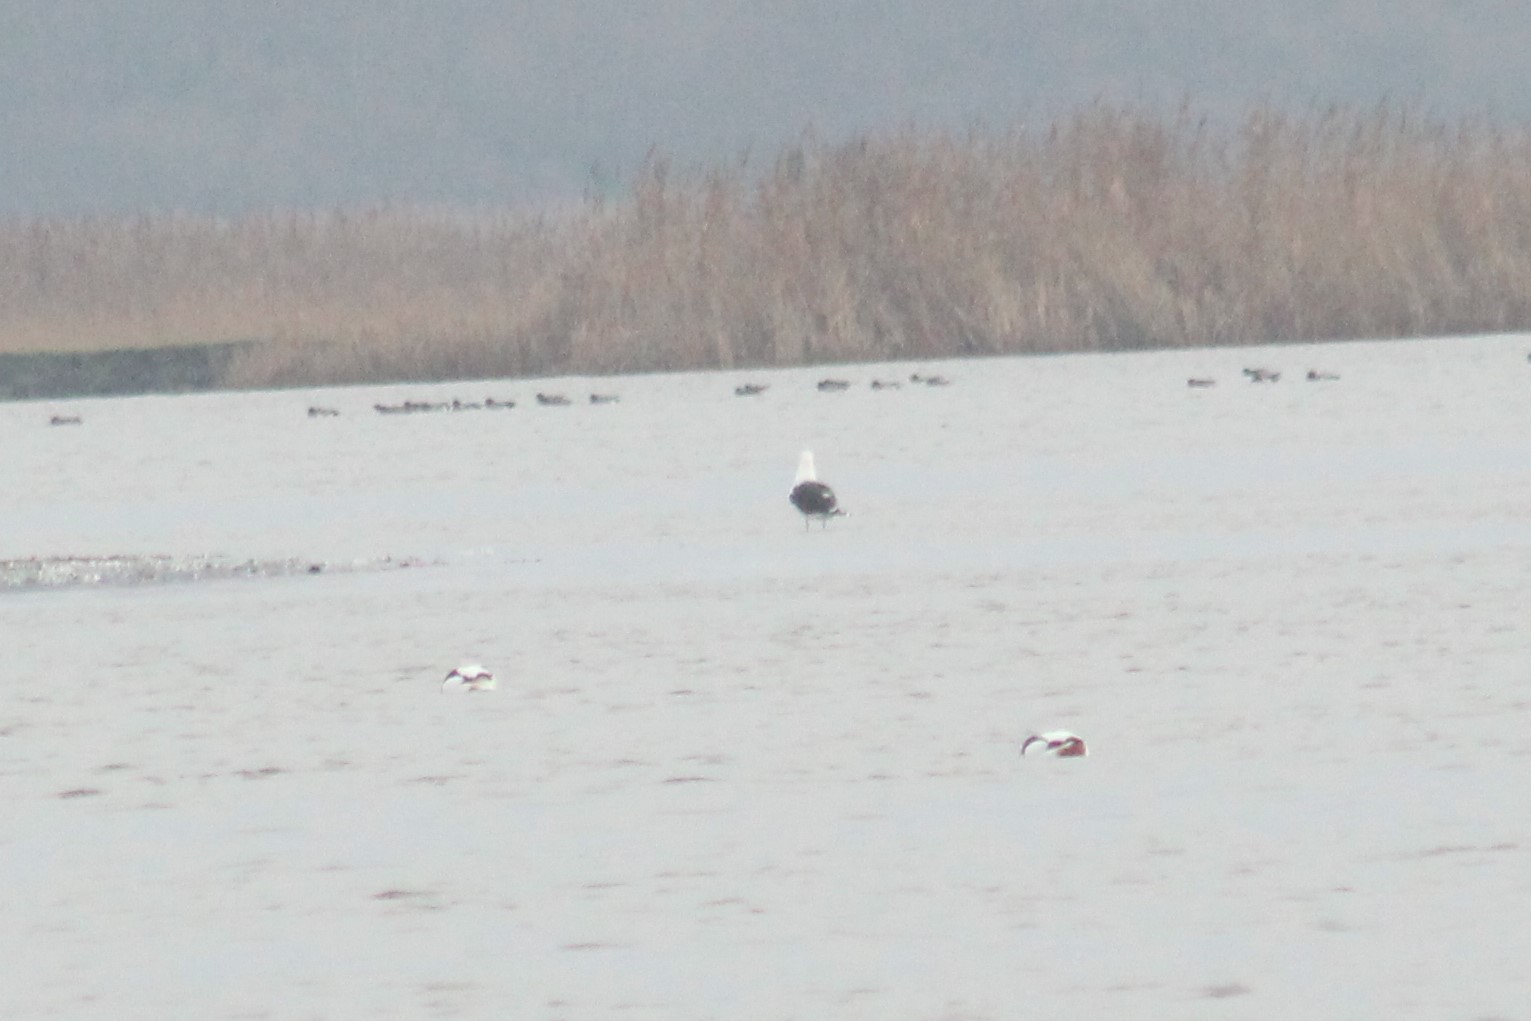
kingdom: Animalia
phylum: Chordata
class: Aves
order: Charadriiformes
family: Laridae
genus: Larus
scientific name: Larus marinus
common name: Great black-backed gull
